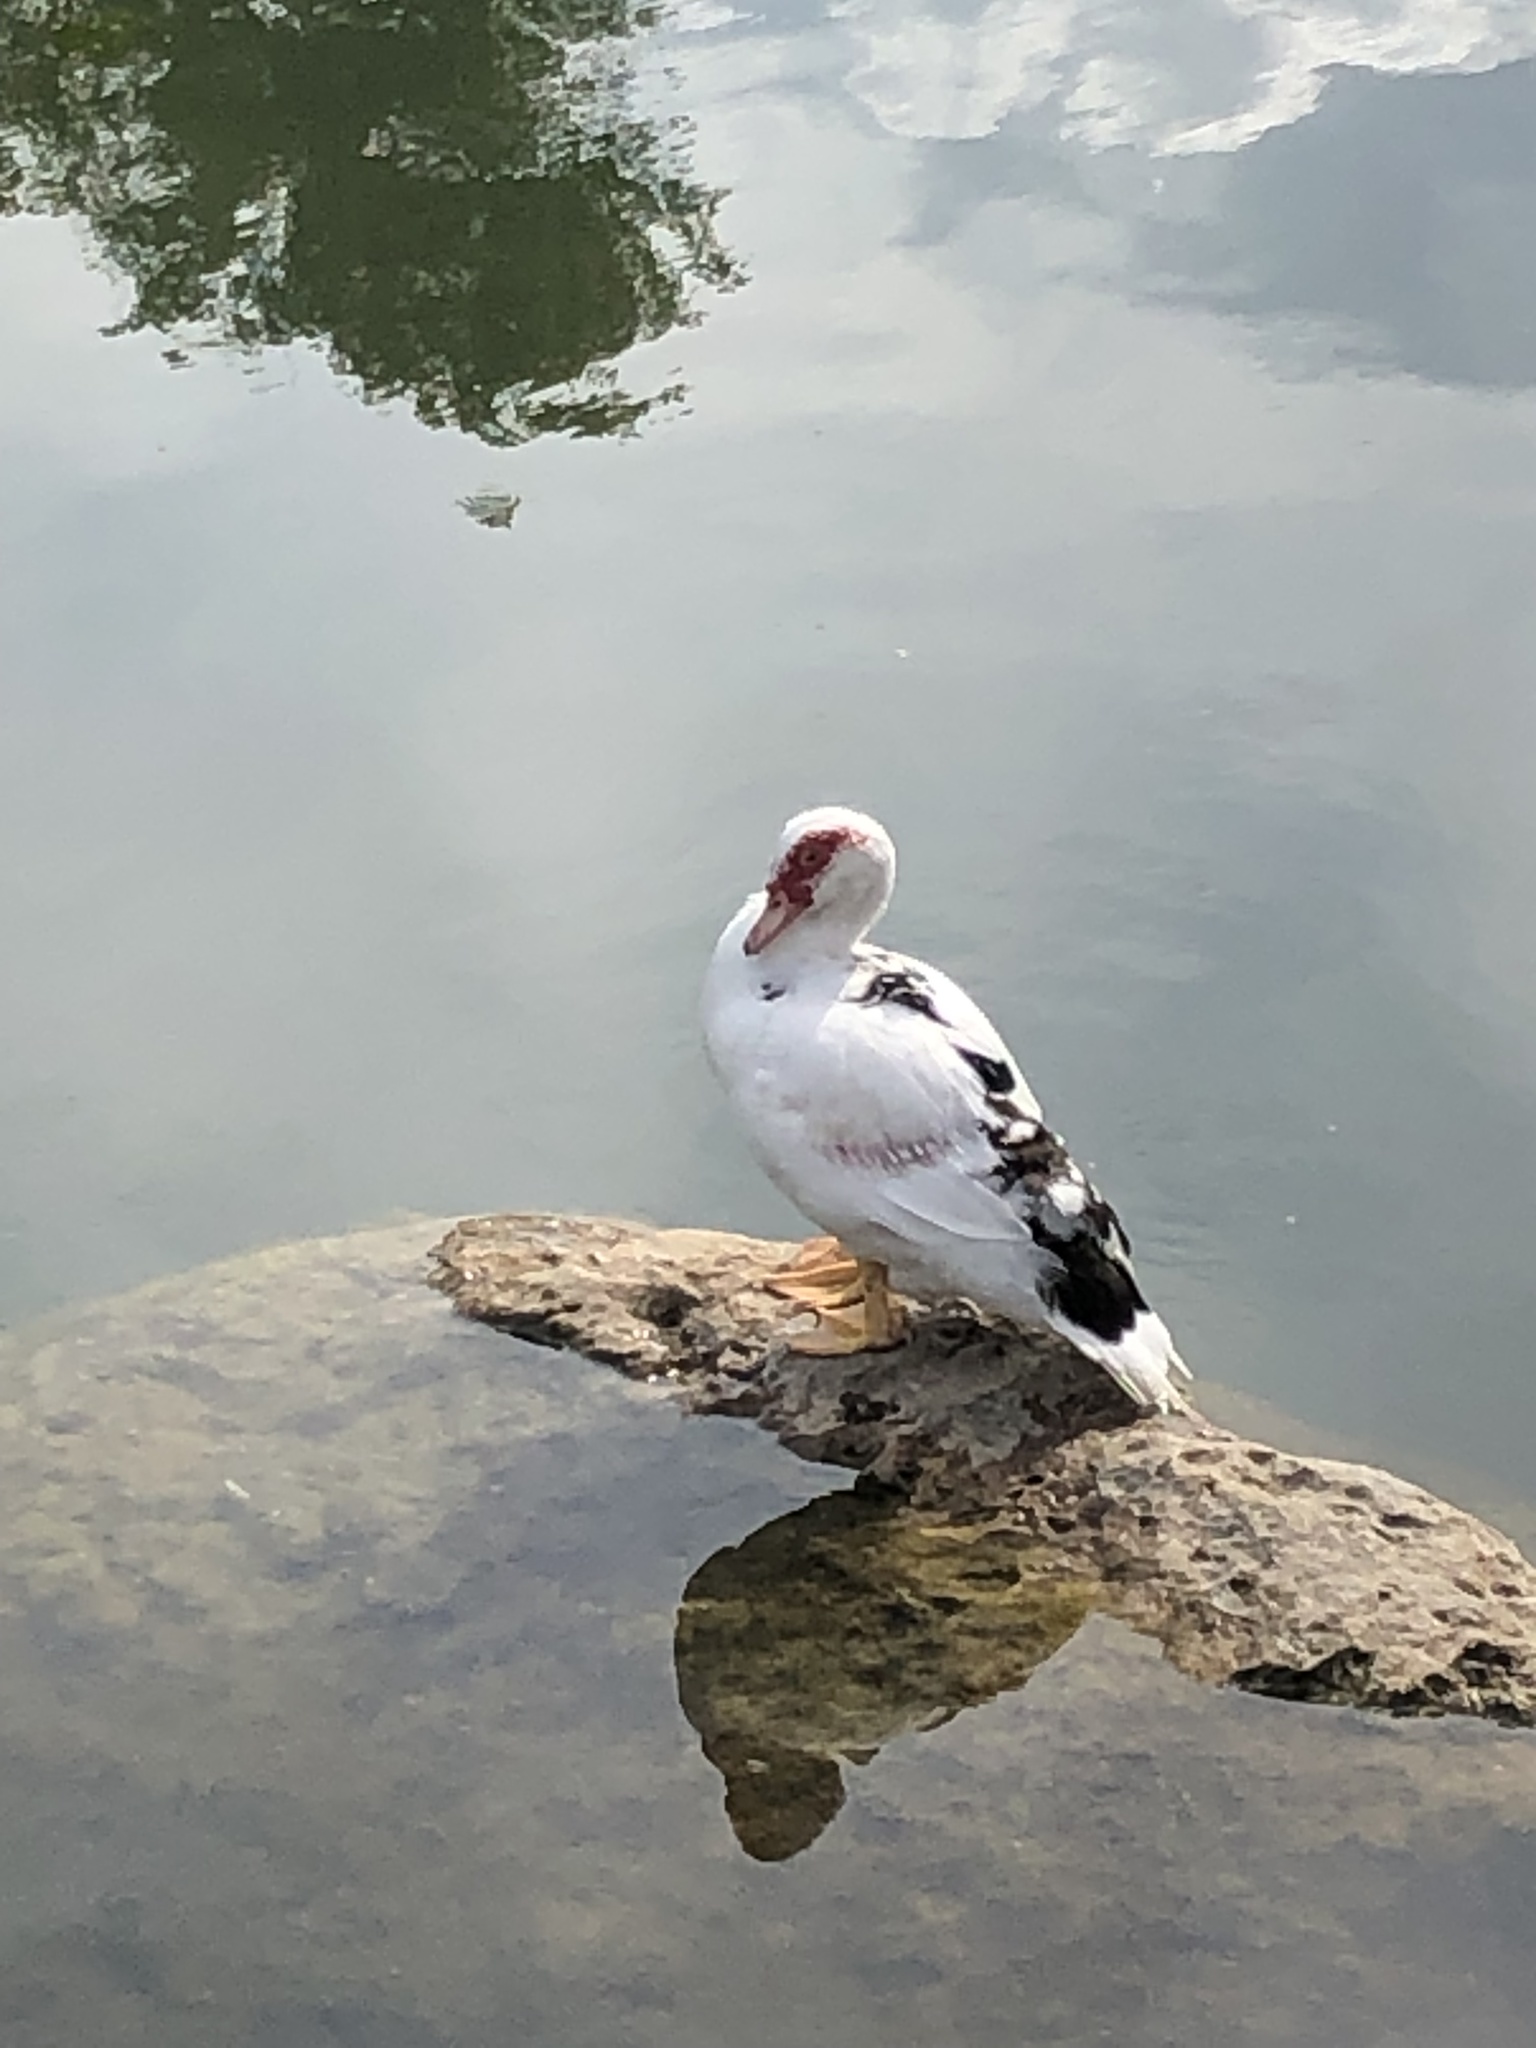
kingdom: Animalia
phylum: Chordata
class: Aves
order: Anseriformes
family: Anatidae
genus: Cairina
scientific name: Cairina moschata
